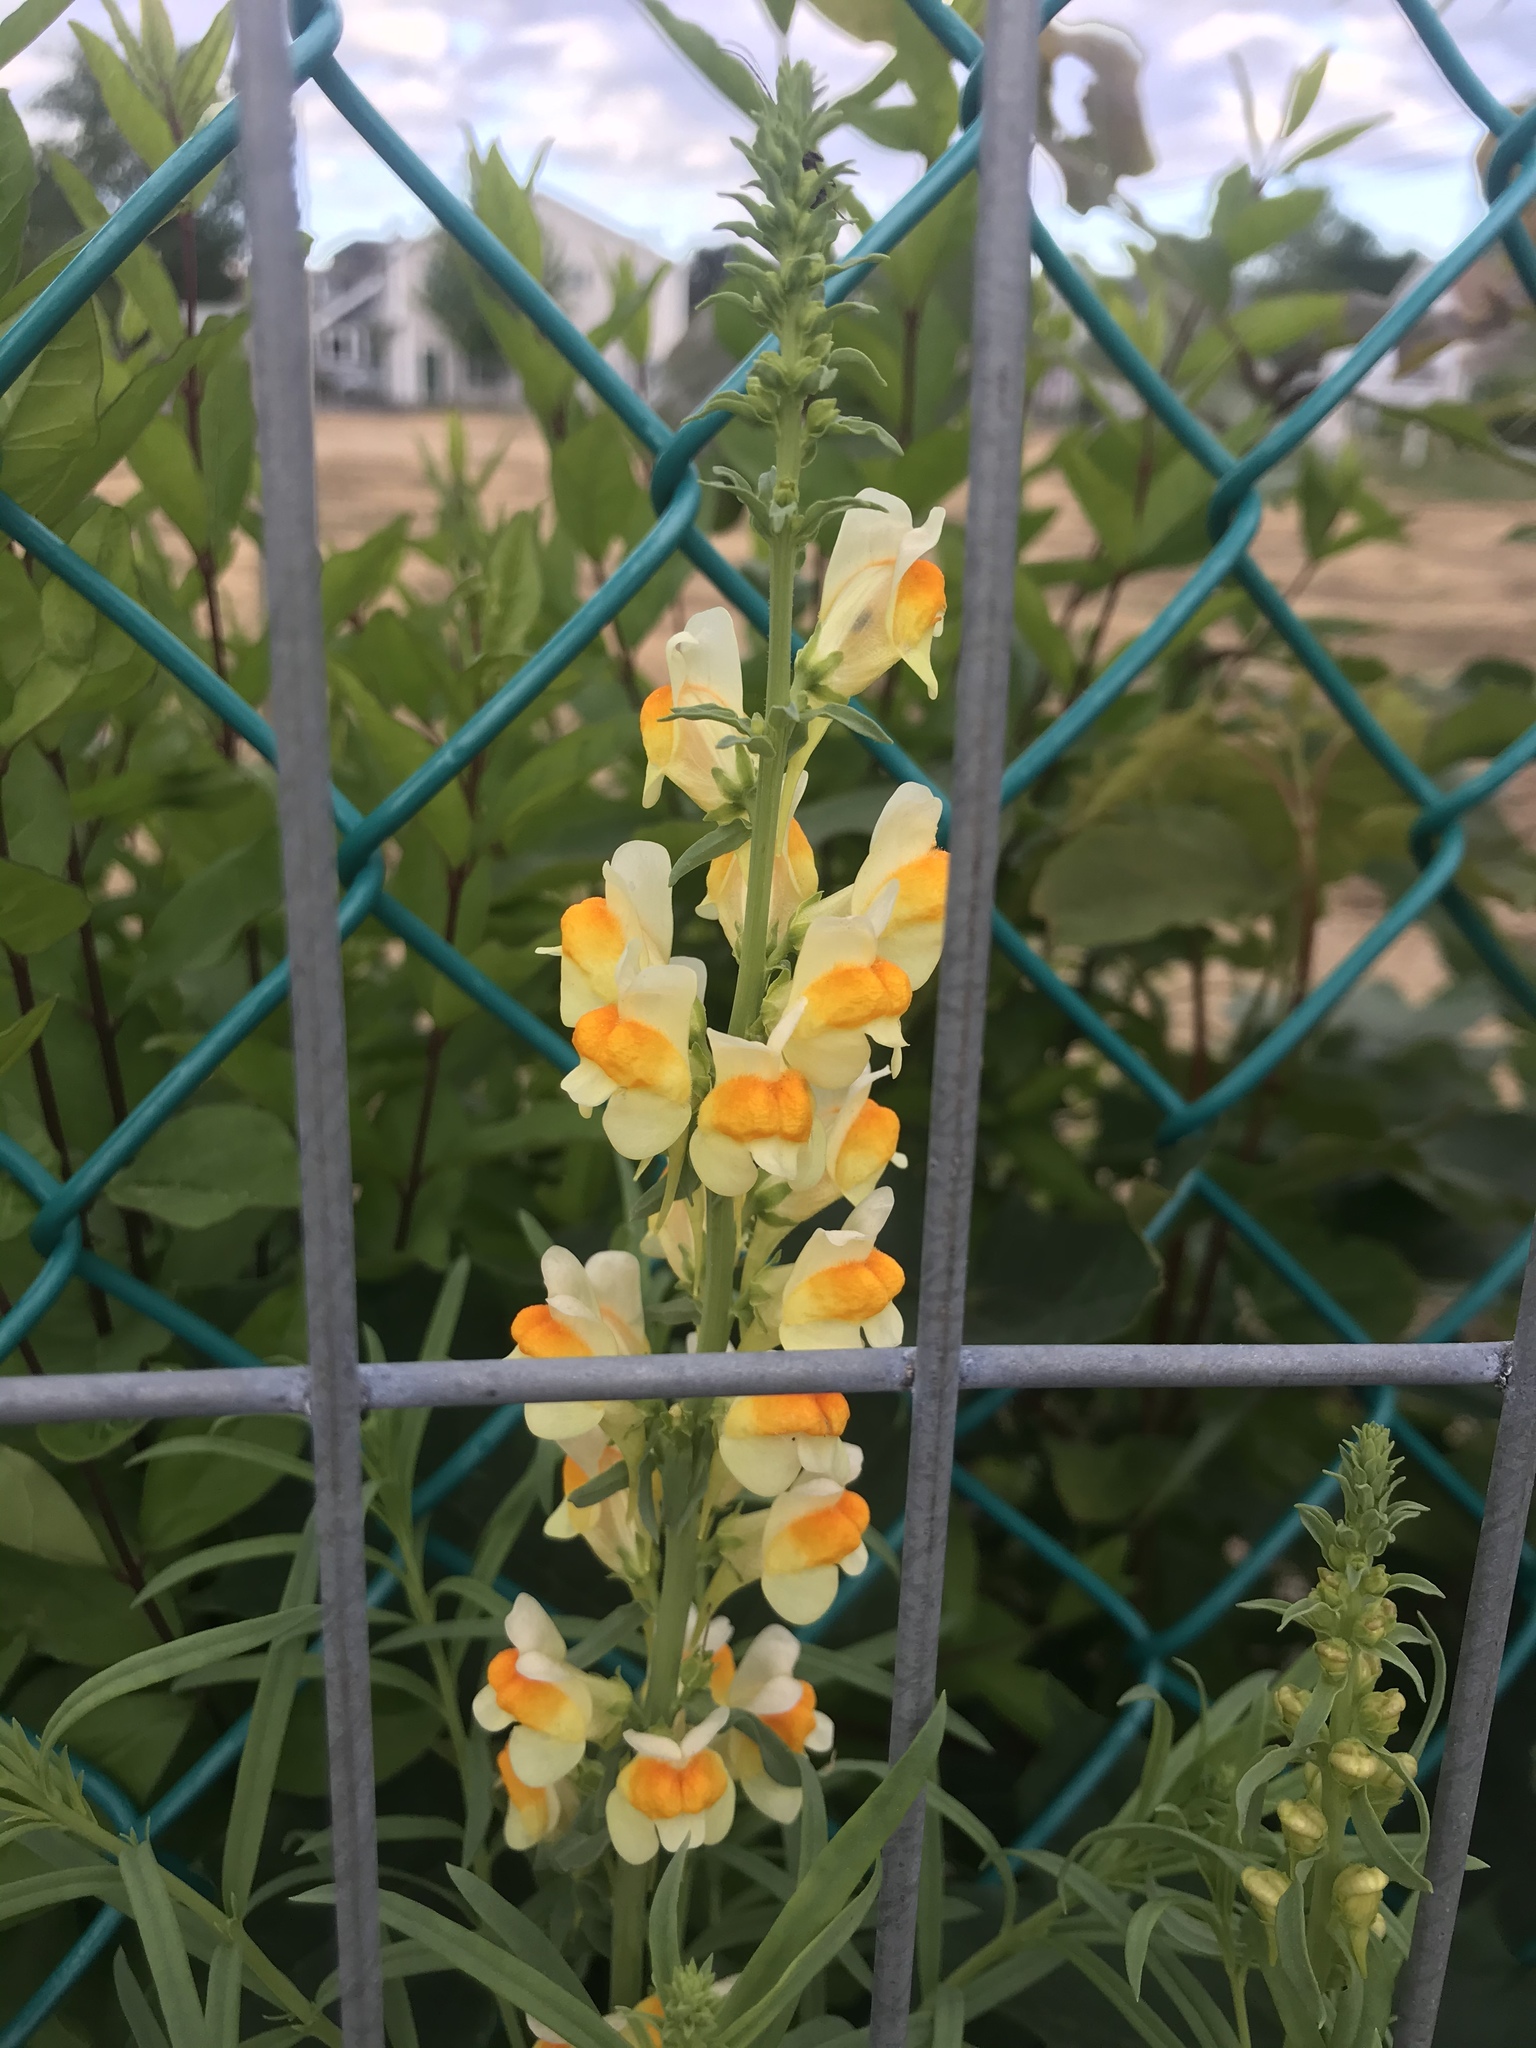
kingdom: Plantae
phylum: Tracheophyta
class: Magnoliopsida
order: Lamiales
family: Plantaginaceae
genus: Linaria
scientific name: Linaria vulgaris
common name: Butter and eggs
